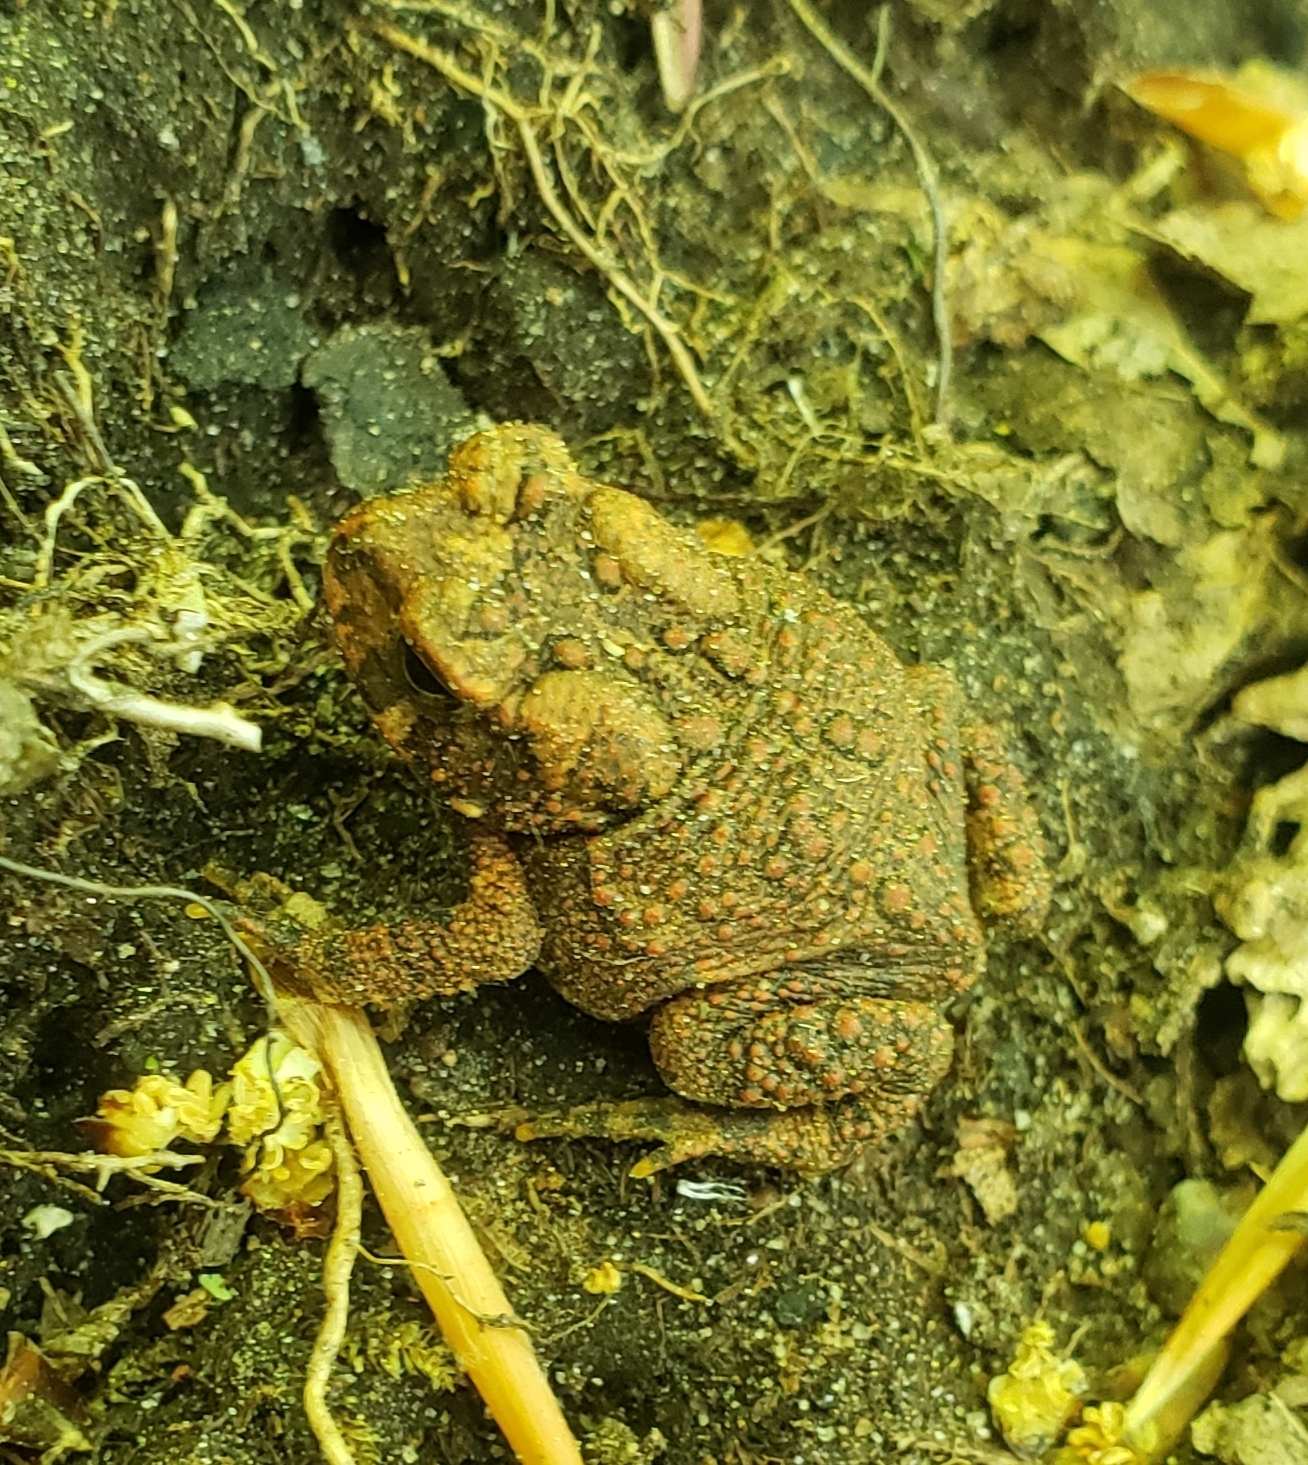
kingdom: Animalia
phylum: Chordata
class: Amphibia
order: Anura
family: Bufonidae
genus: Anaxyrus
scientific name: Anaxyrus americanus
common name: American toad
